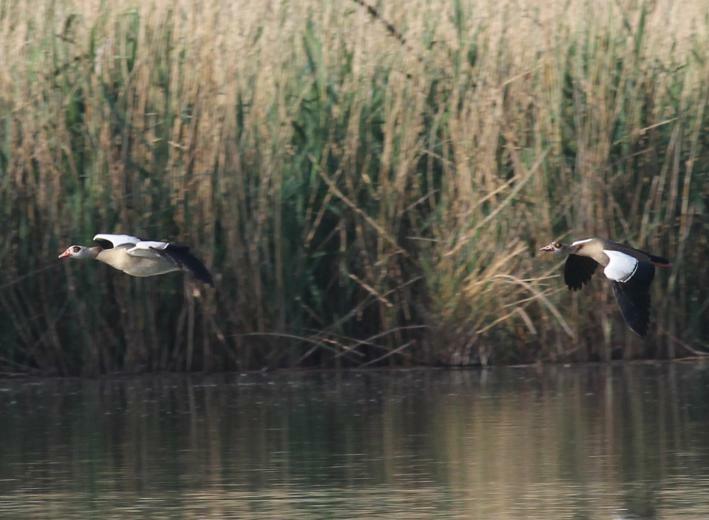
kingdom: Animalia
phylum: Chordata
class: Aves
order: Anseriformes
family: Anatidae
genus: Alopochen
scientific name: Alopochen aegyptiaca
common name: Egyptian goose
